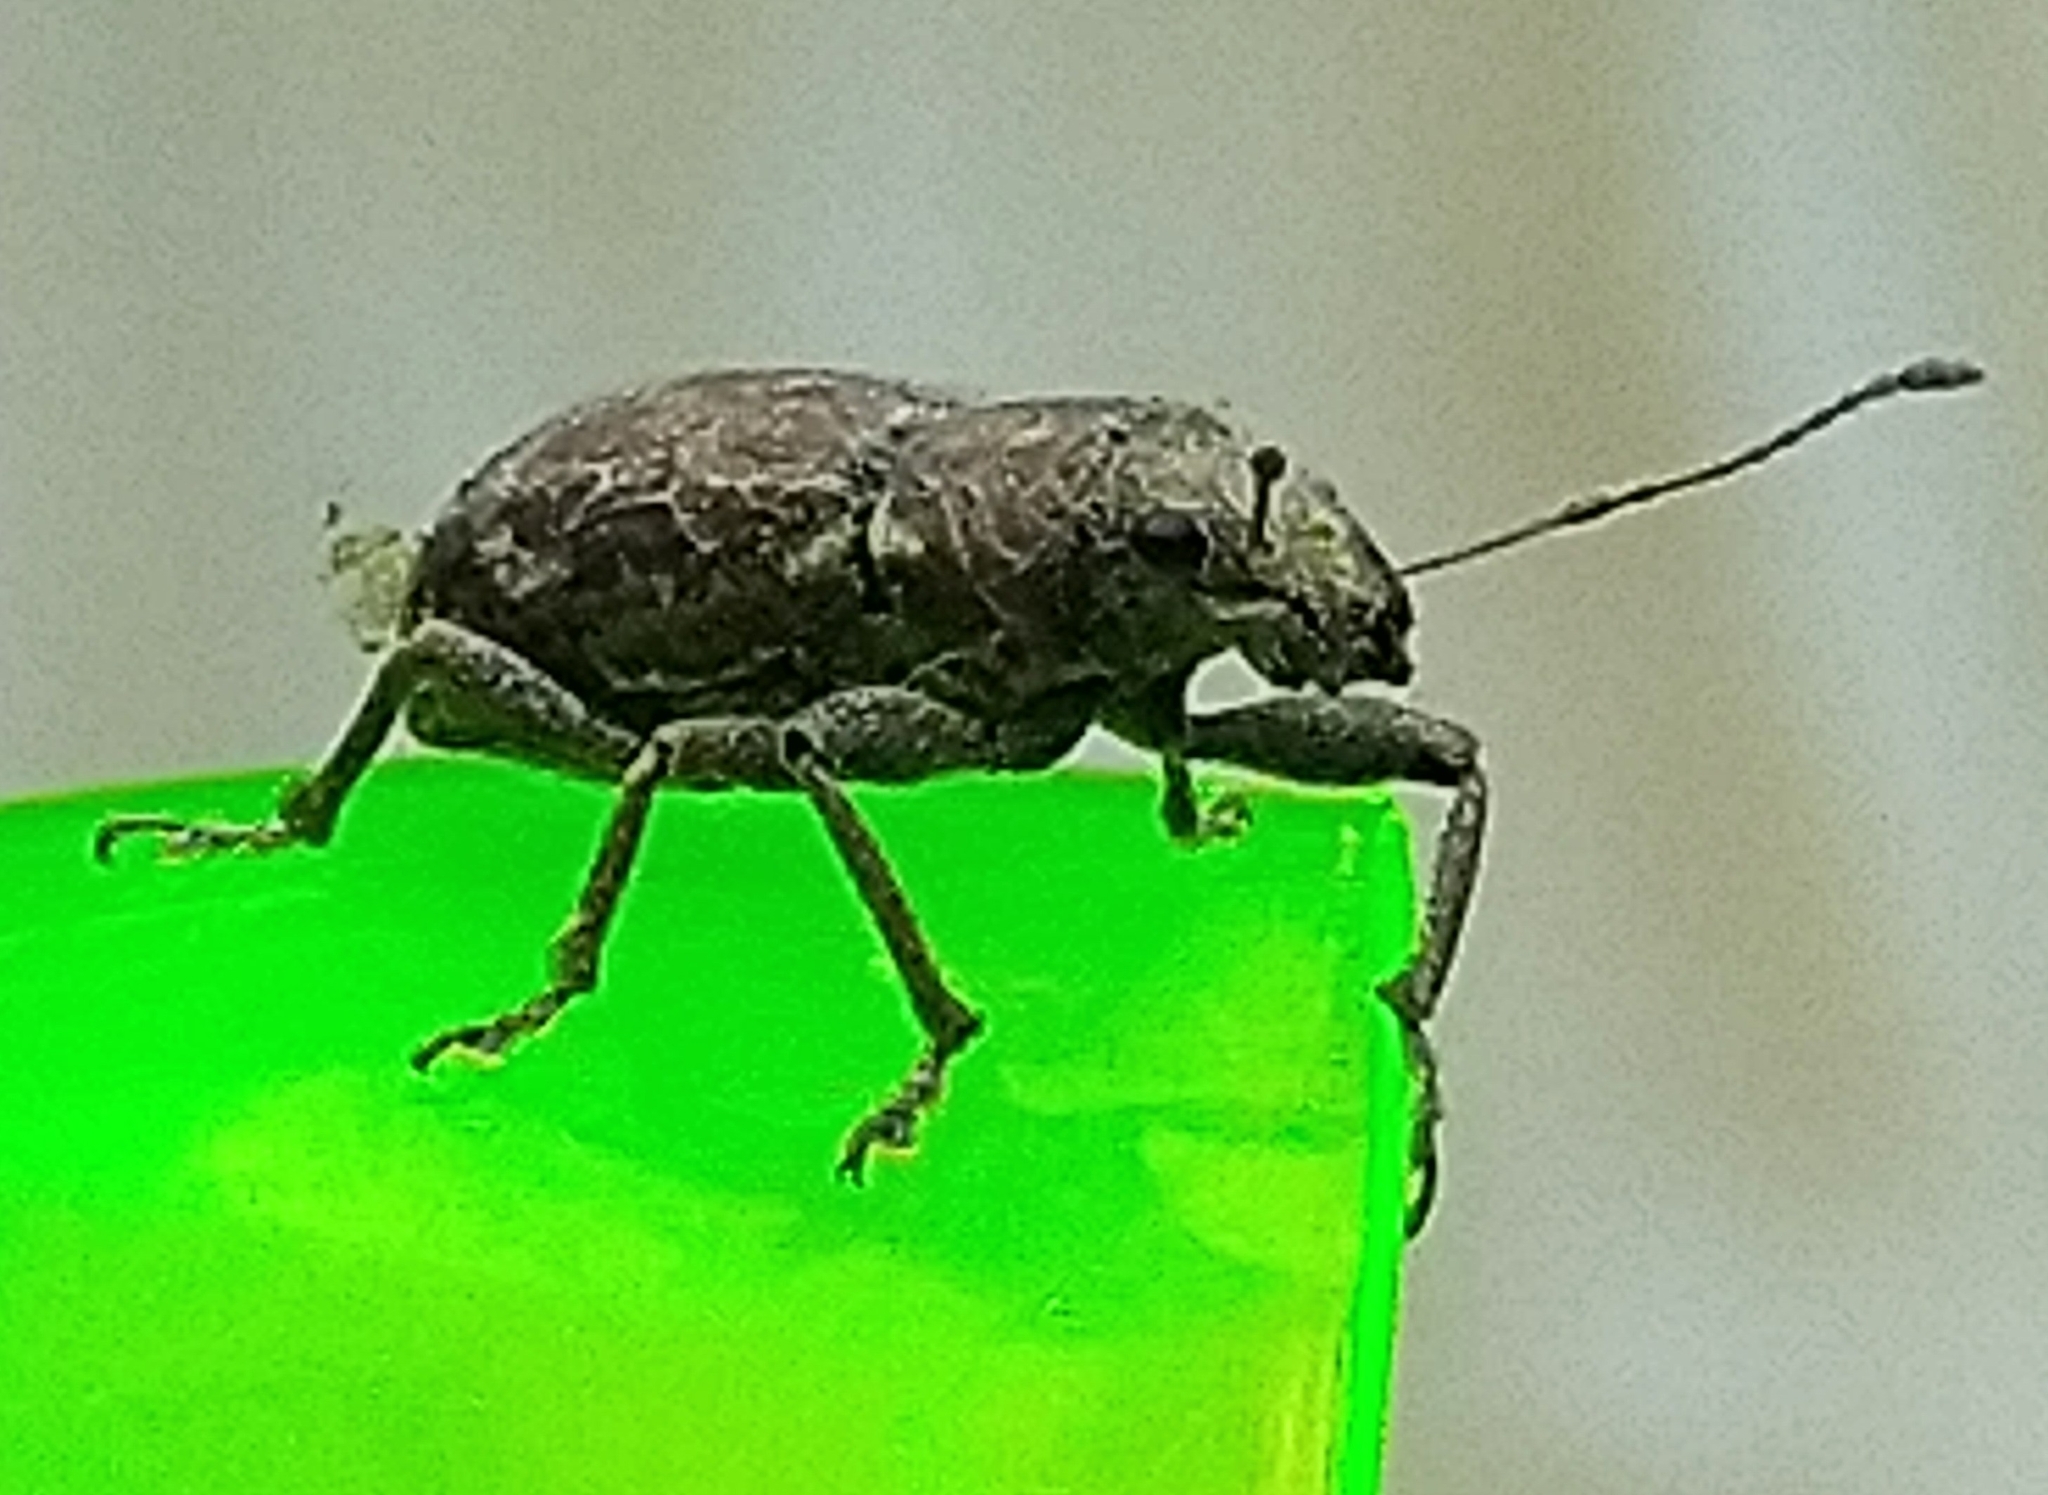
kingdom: Animalia
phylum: Arthropoda
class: Insecta
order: Coleoptera
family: Curculionidae
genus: Naupactus
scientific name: Naupactus cervinus
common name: Fuller rose beetle
